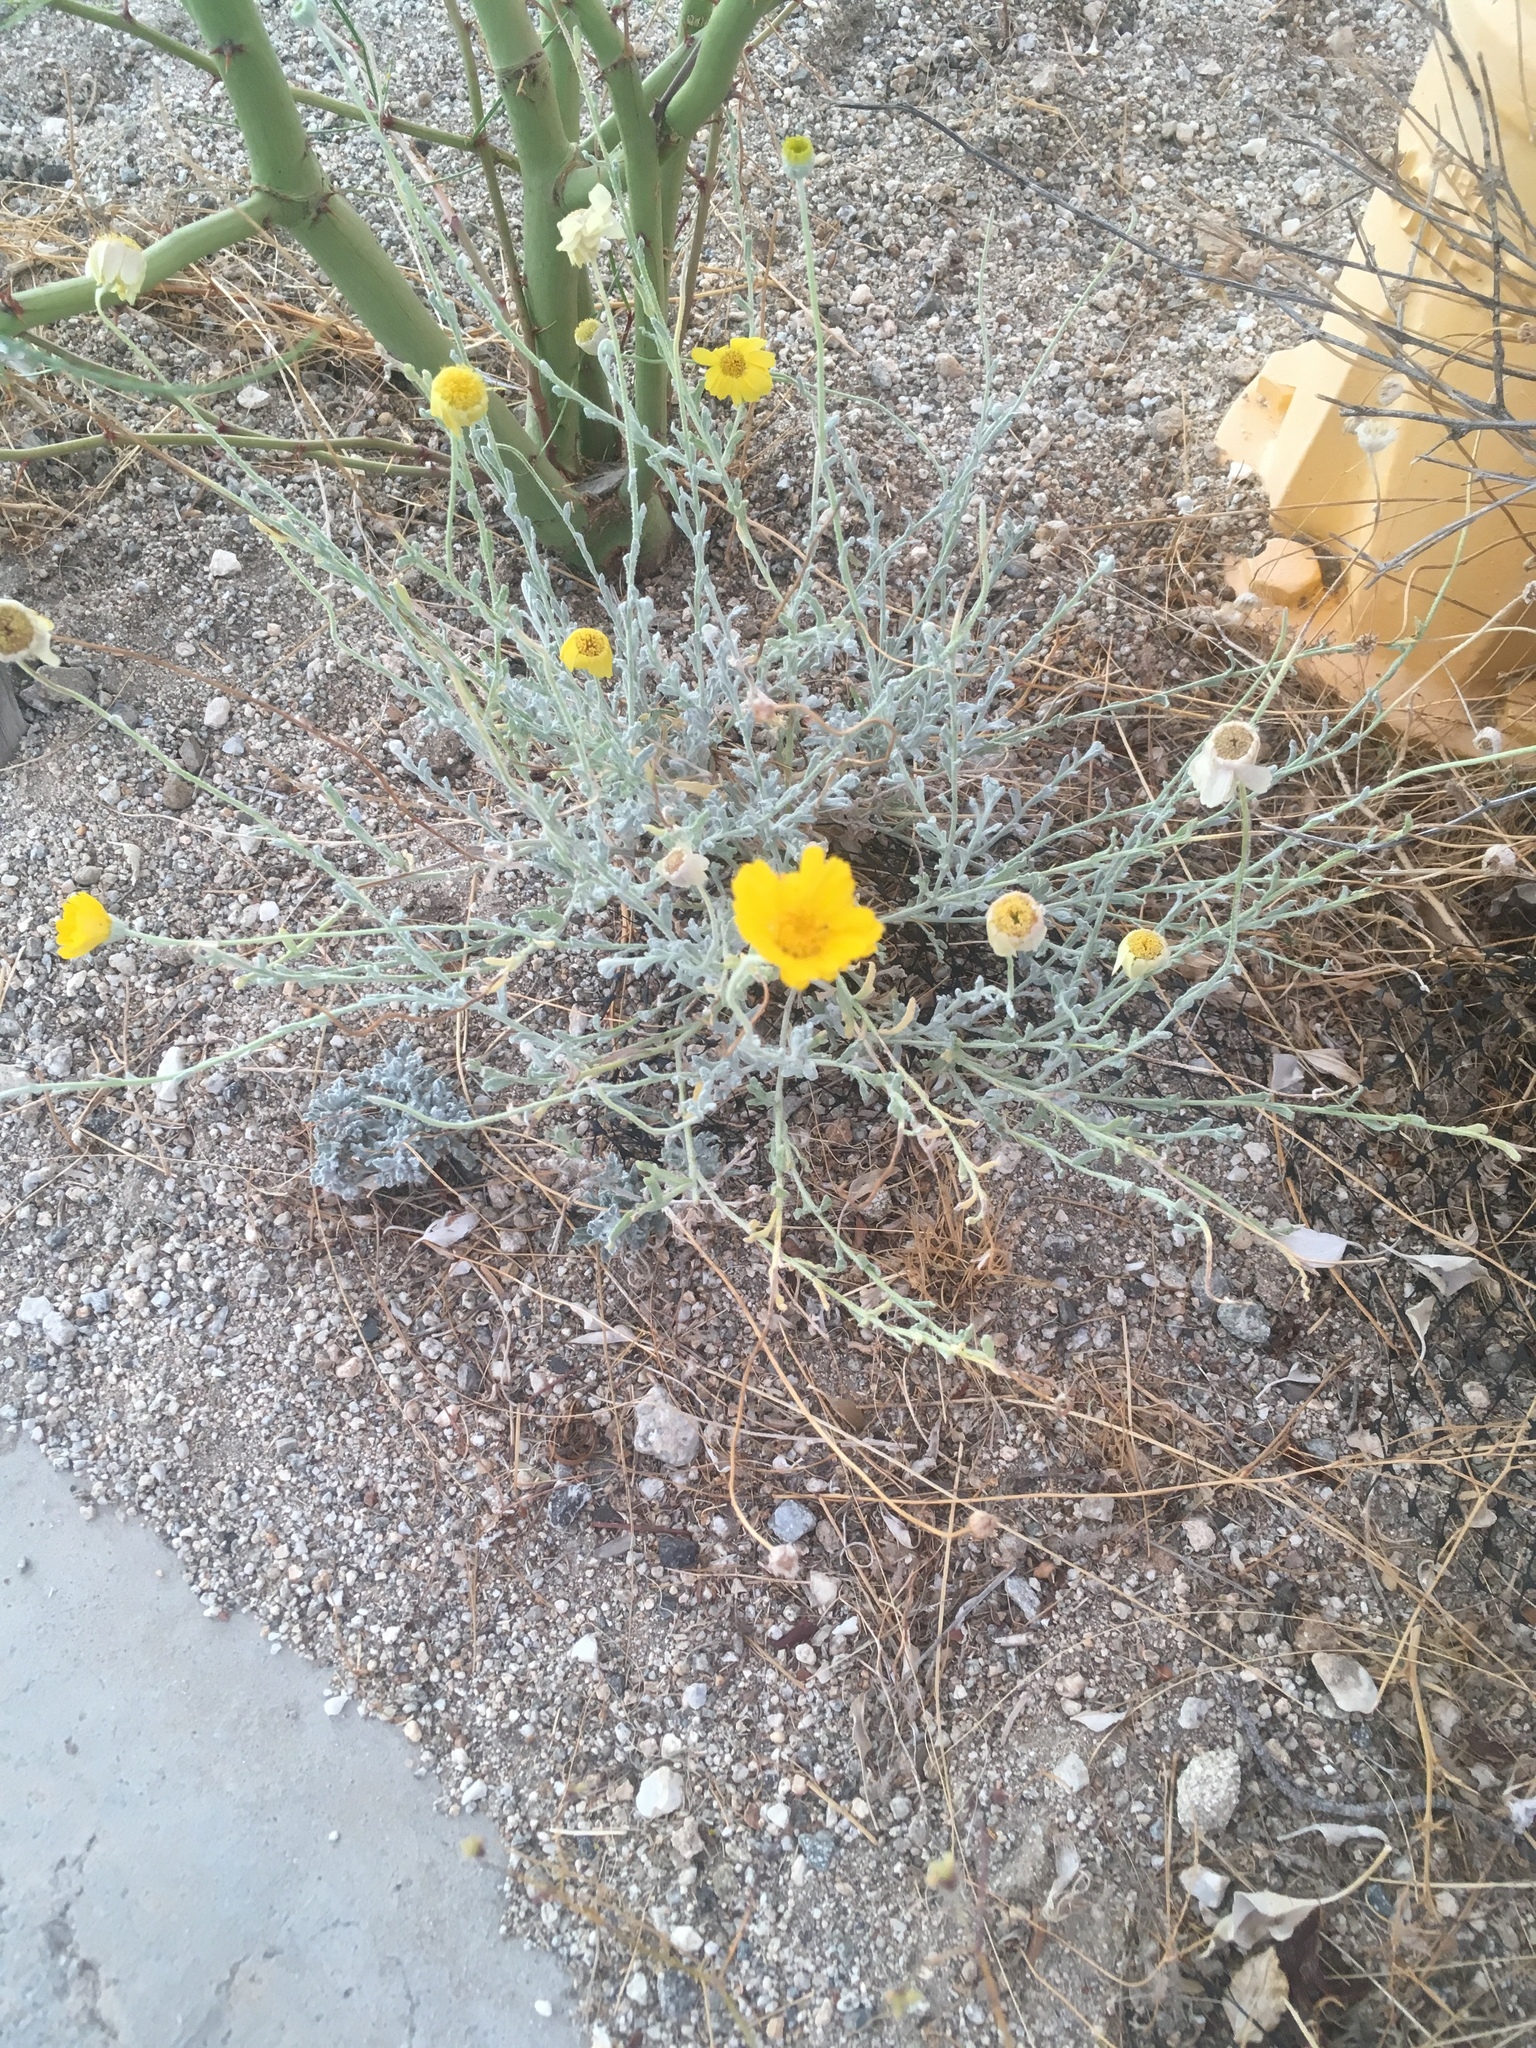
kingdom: Plantae
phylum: Tracheophyta
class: Magnoliopsida
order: Asterales
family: Asteraceae
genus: Baileya
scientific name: Baileya multiradiata
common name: Desert-marigold
